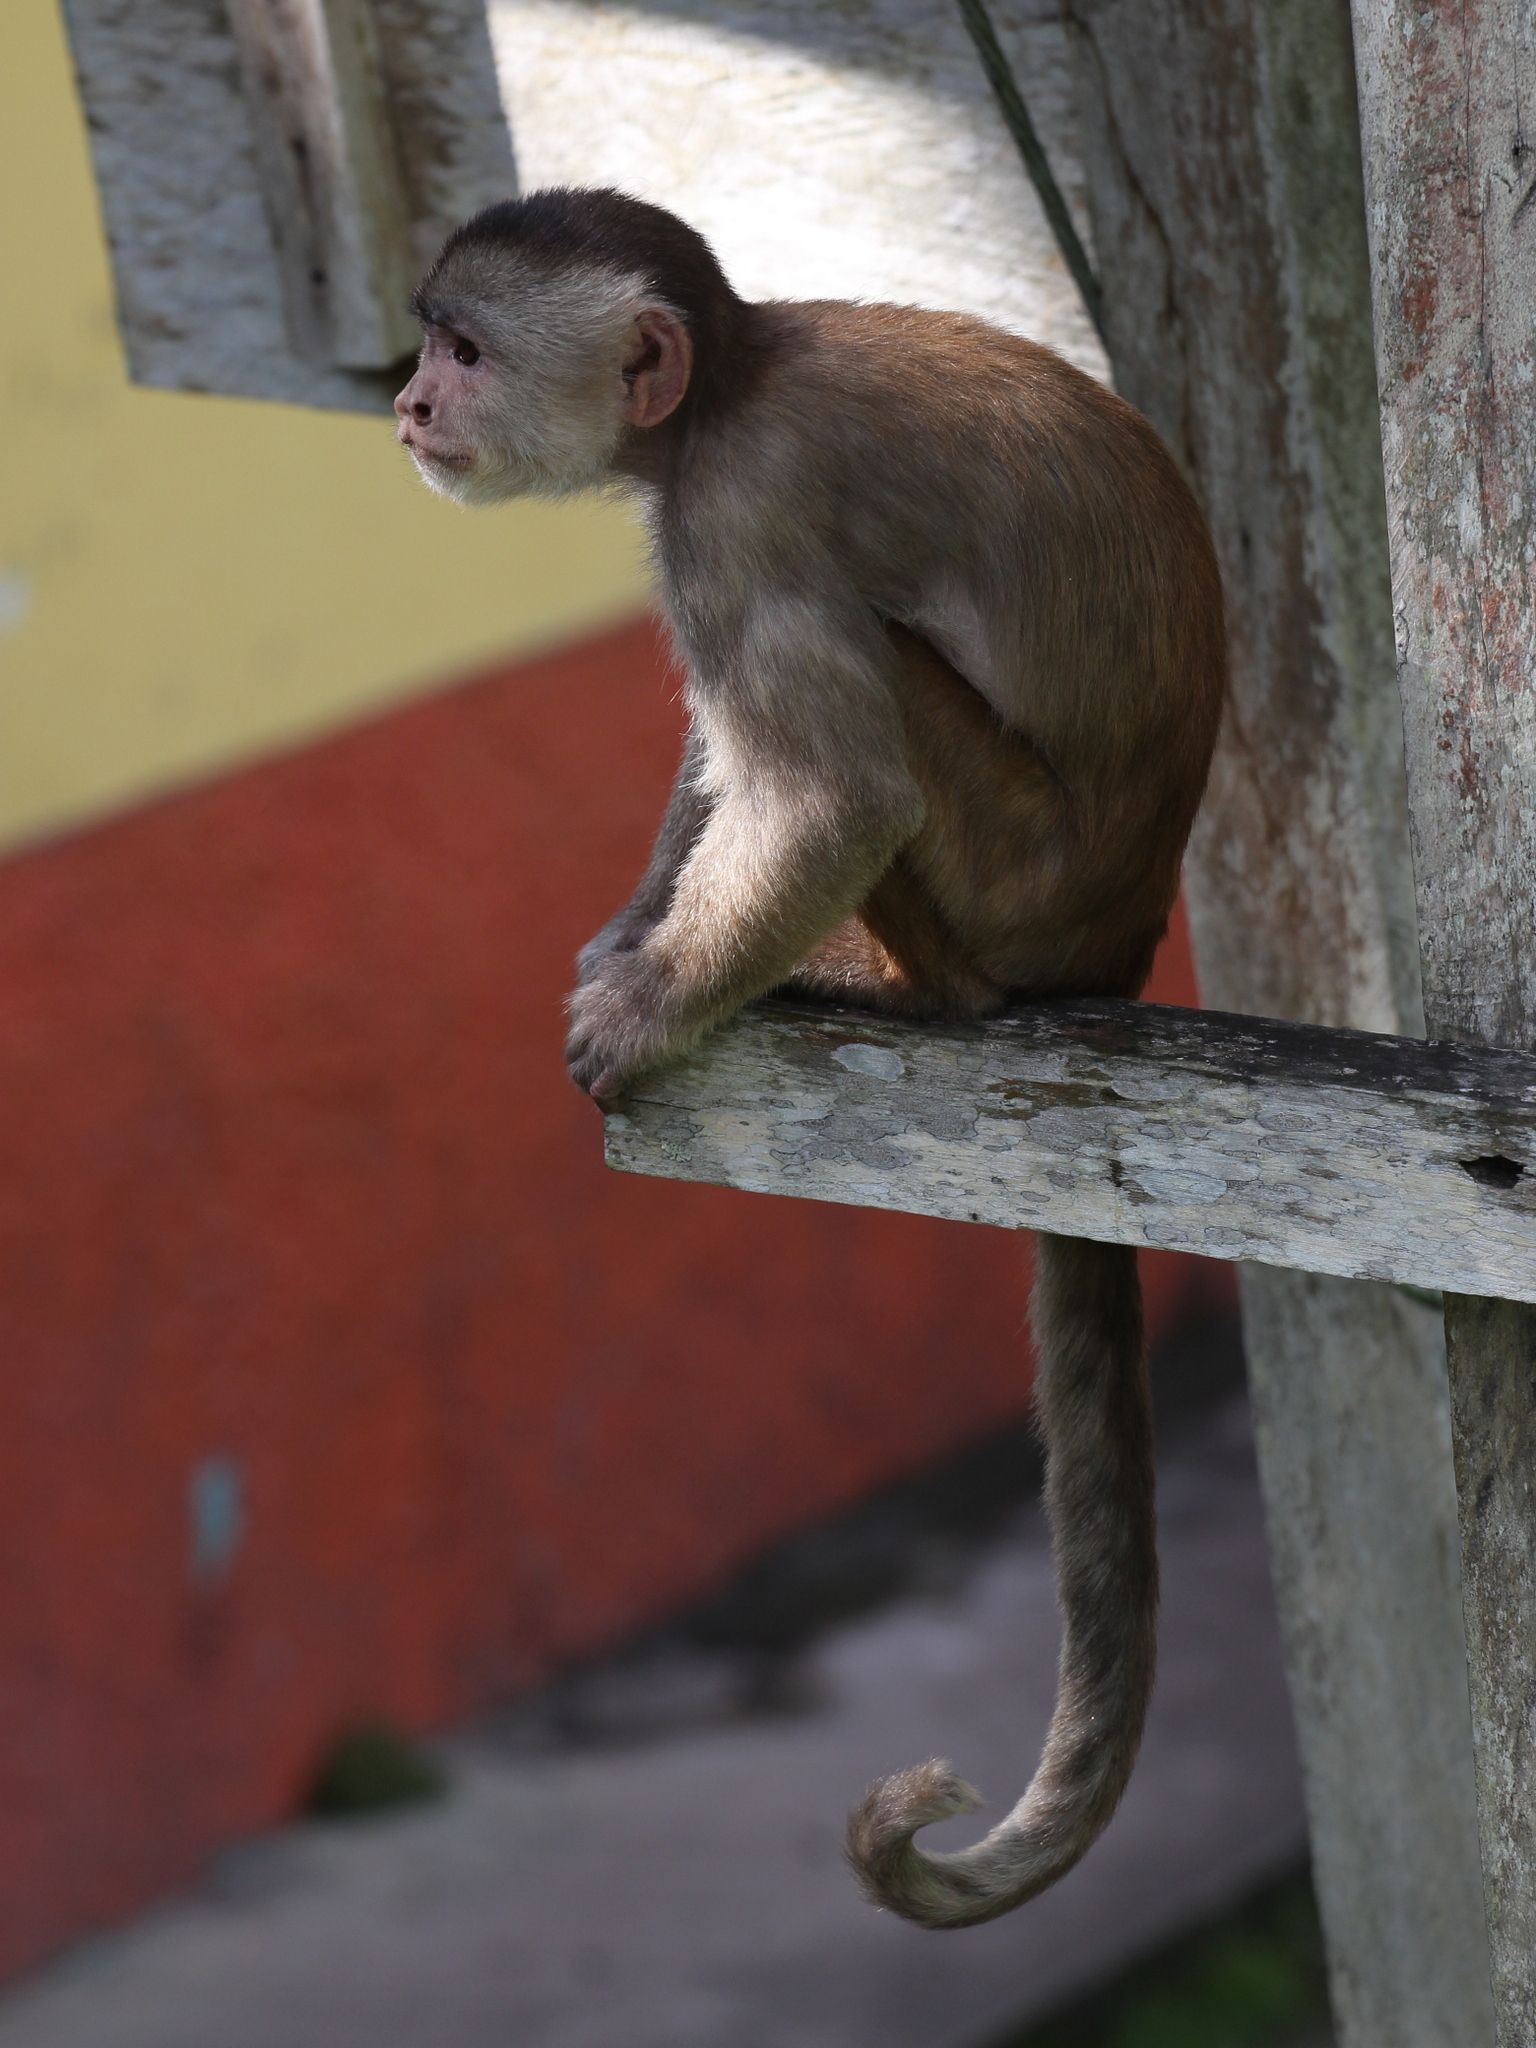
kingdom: Animalia
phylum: Chordata
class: Mammalia
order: Primates
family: Cebidae
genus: Cebus
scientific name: Cebus yuracus
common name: Peruvian white-fronted capuchin
